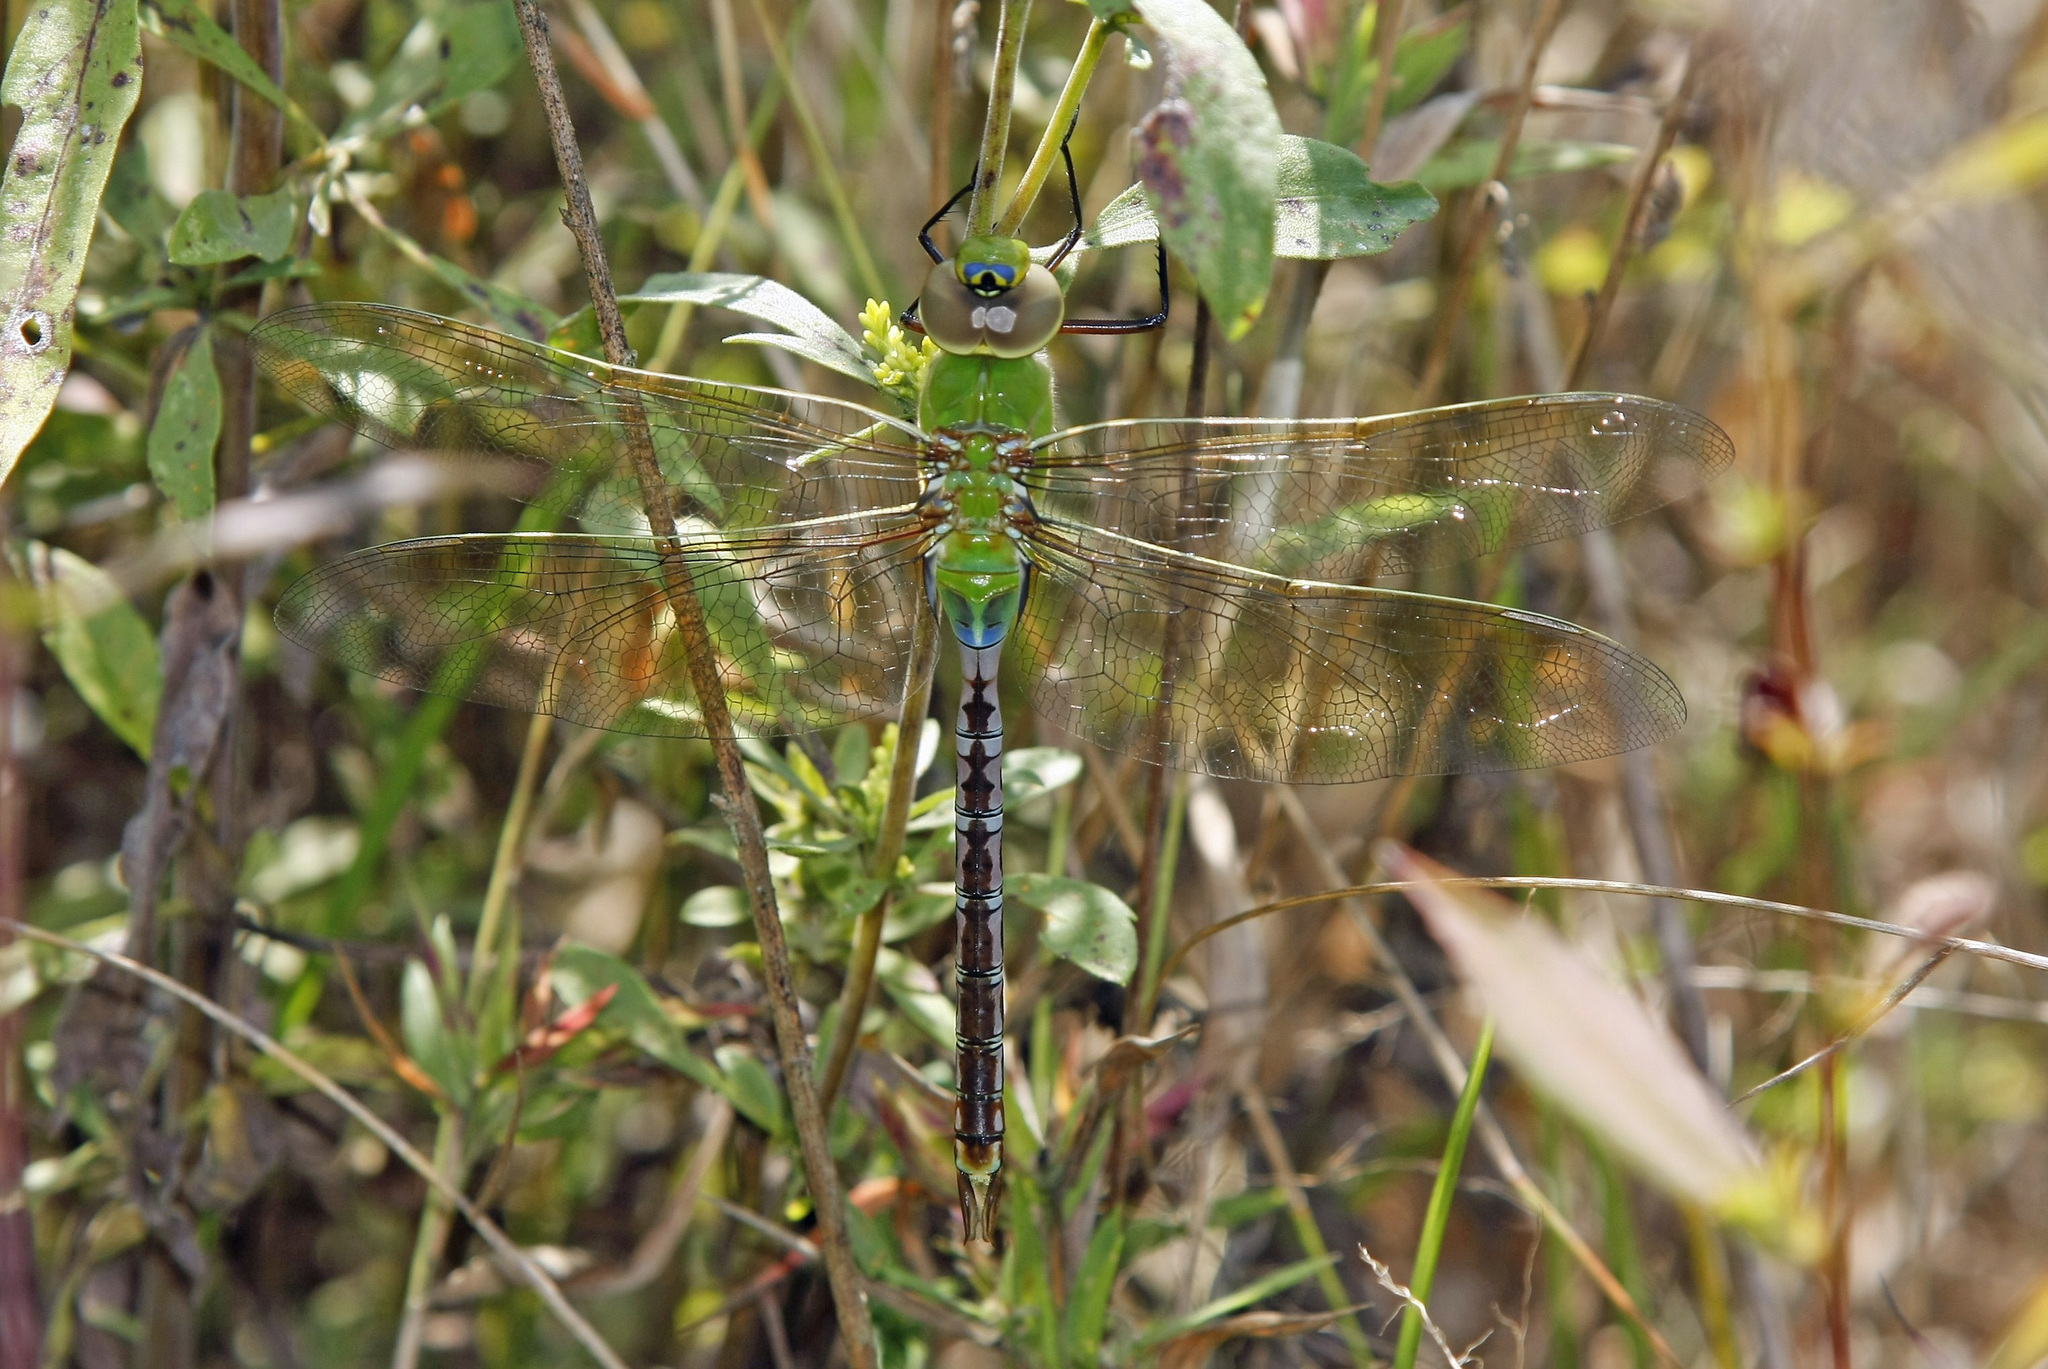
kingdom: Animalia
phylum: Arthropoda
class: Insecta
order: Odonata
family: Aeshnidae
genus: Anax
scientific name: Anax junius
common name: Common green darner
